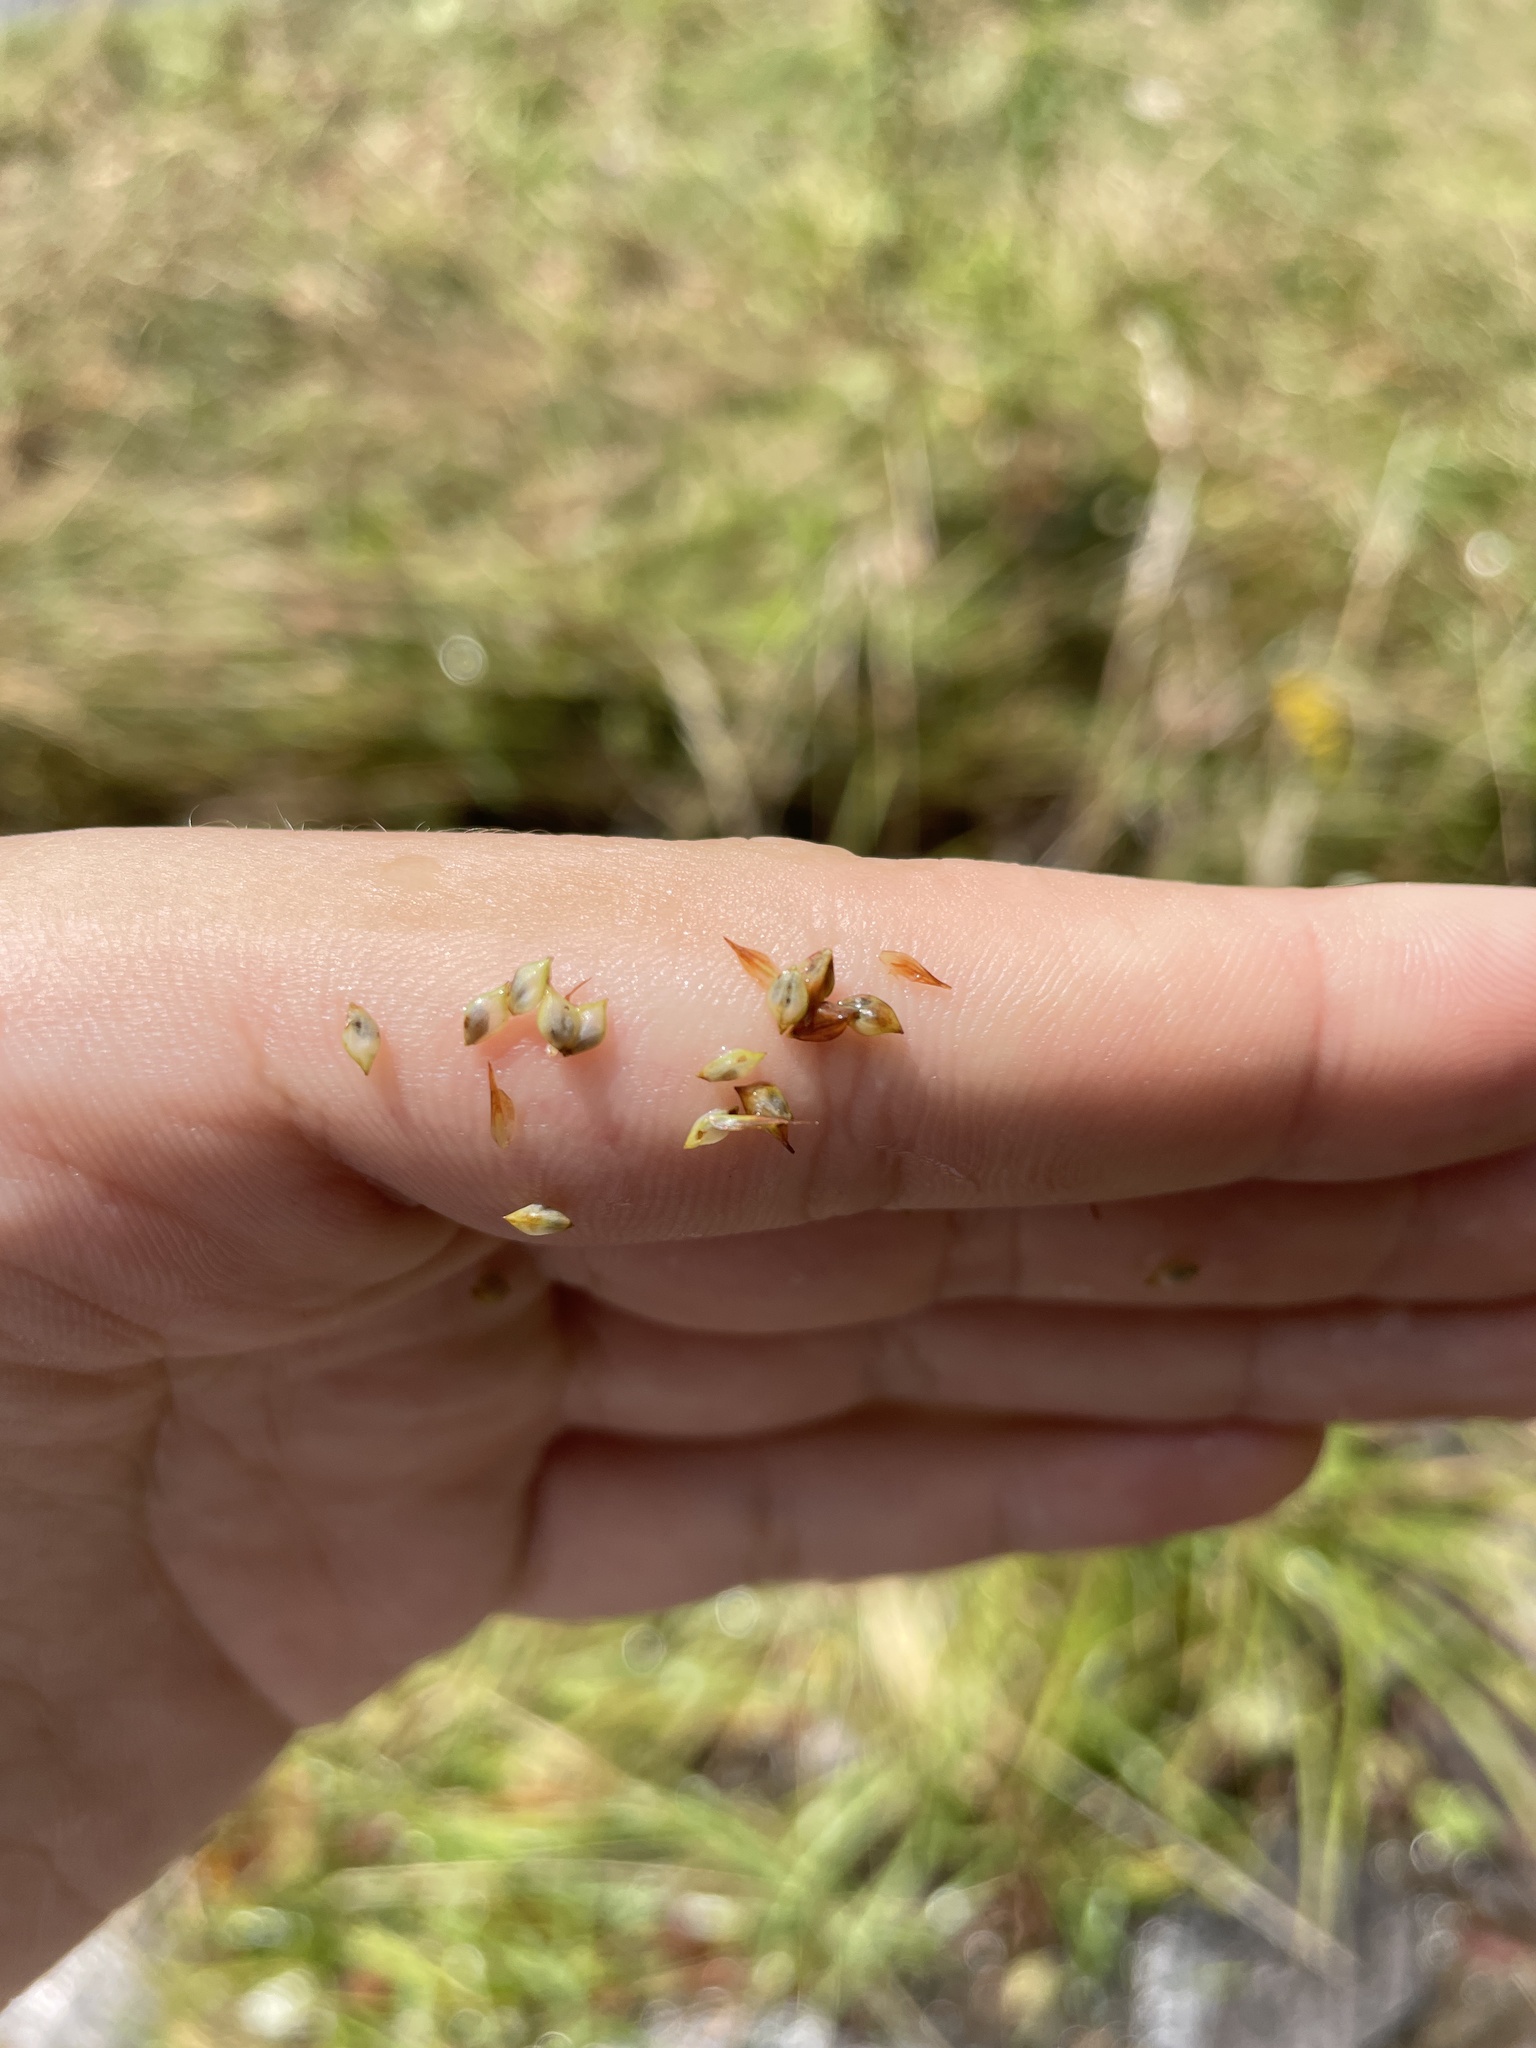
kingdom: Plantae
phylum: Tracheophyta
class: Liliopsida
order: Poales
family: Cyperaceae
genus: Carex
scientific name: Carex gynandra
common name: Nodding sedge
